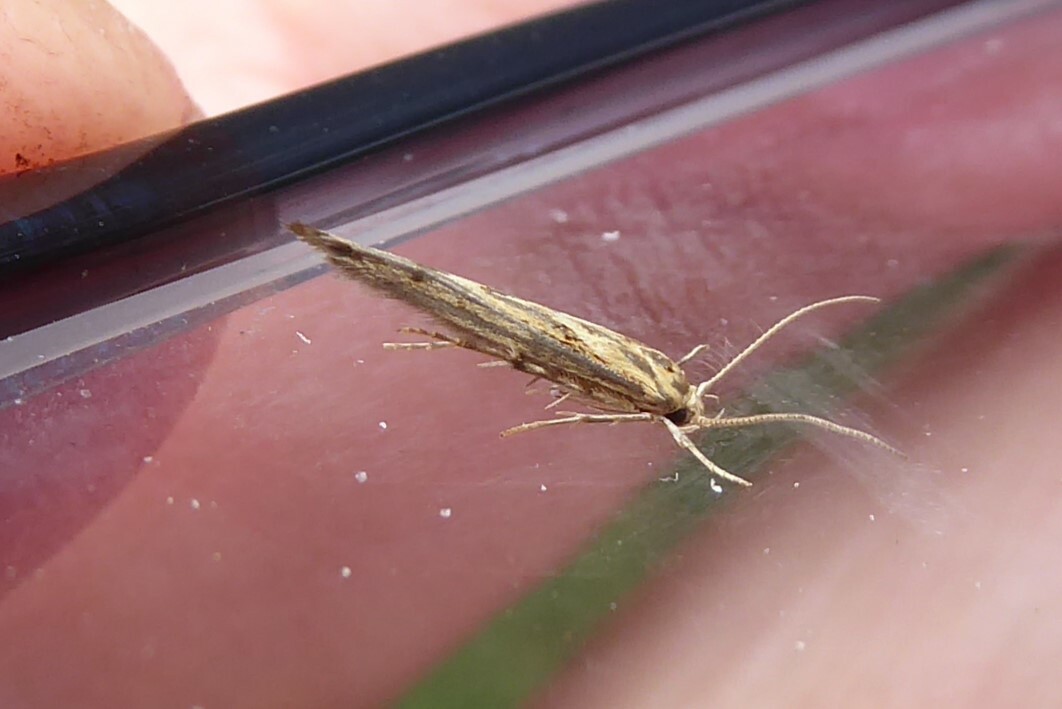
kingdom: Animalia
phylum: Arthropoda
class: Insecta
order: Lepidoptera
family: Stathmopodidae
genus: Stathmopoda
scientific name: Stathmopoda plumbiflua
